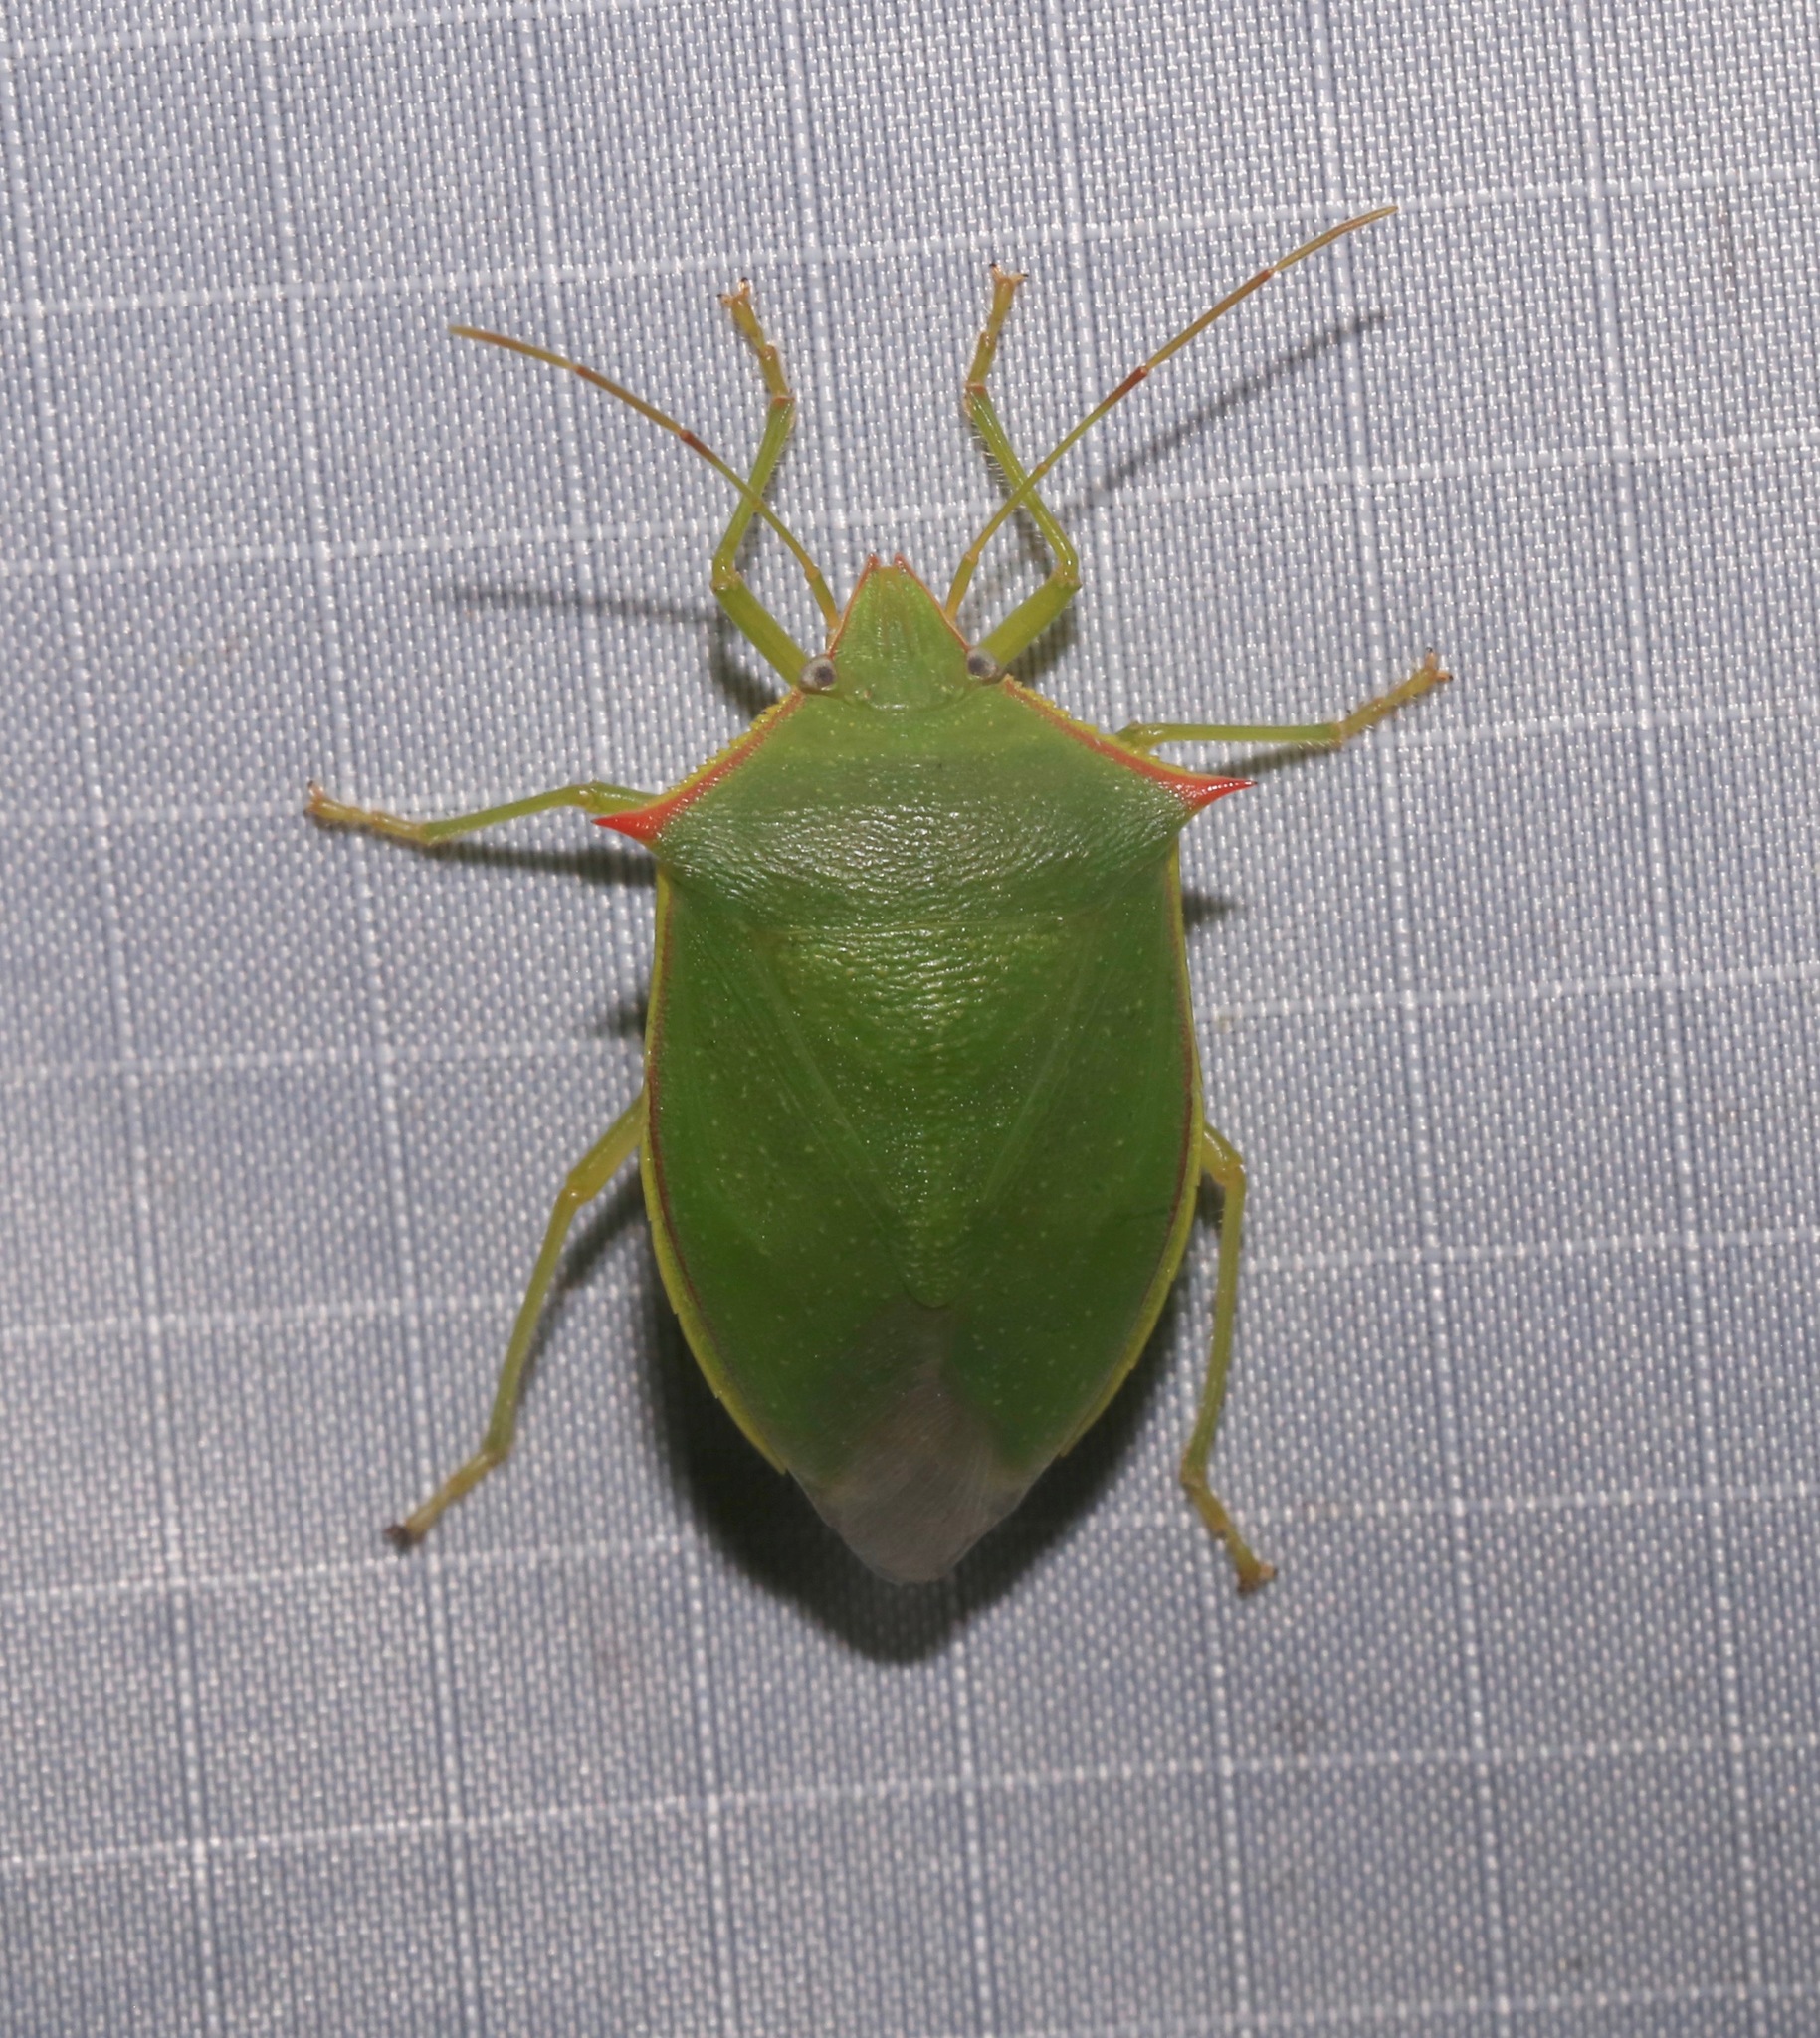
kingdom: Animalia
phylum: Arthropoda
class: Insecta
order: Hemiptera
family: Pentatomidae
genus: Loxa
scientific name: Loxa flavicollis
